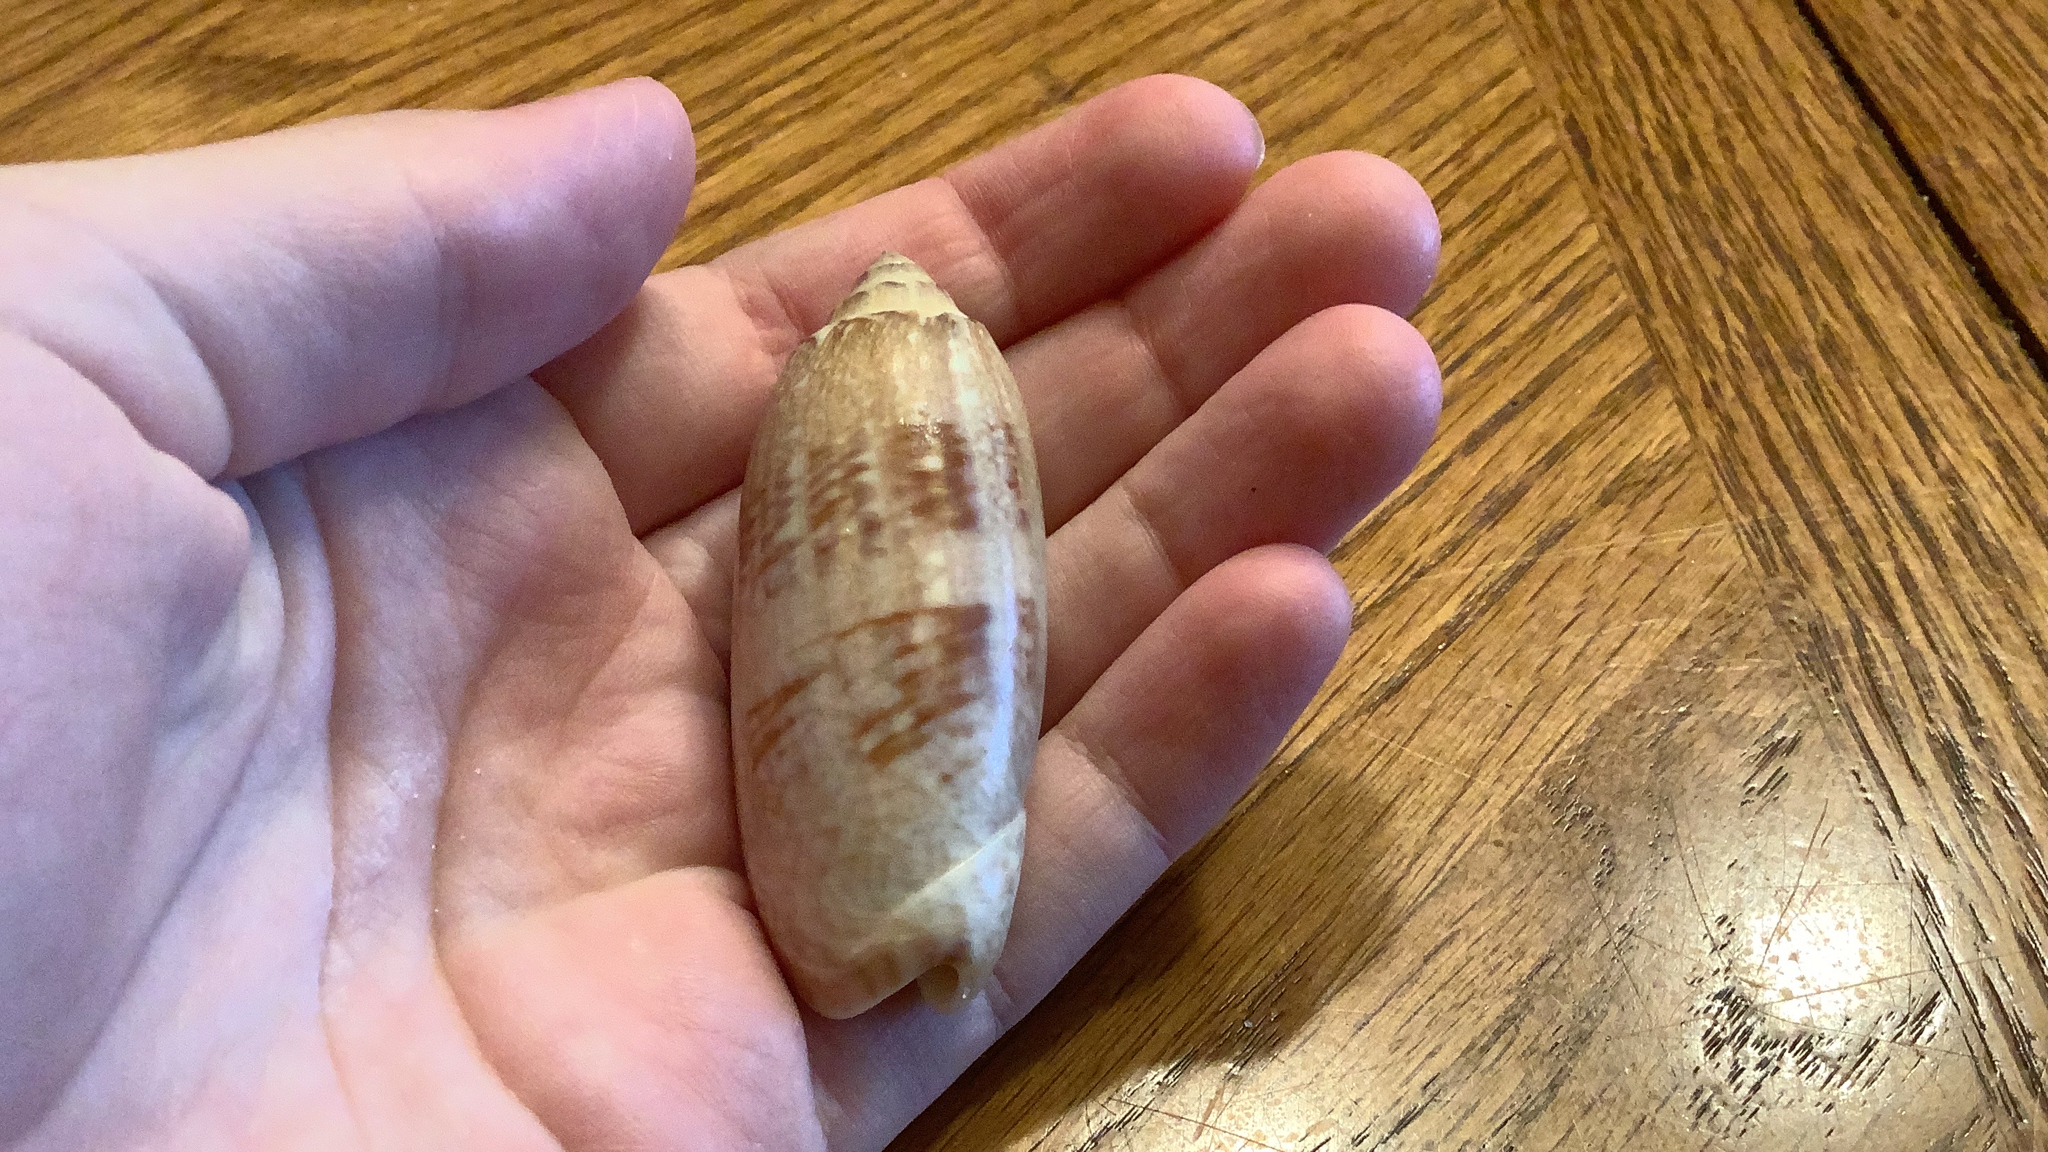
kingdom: Animalia
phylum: Mollusca
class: Gastropoda
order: Neogastropoda
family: Olividae
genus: Oliva
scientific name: Oliva sayana
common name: Lettered olive
